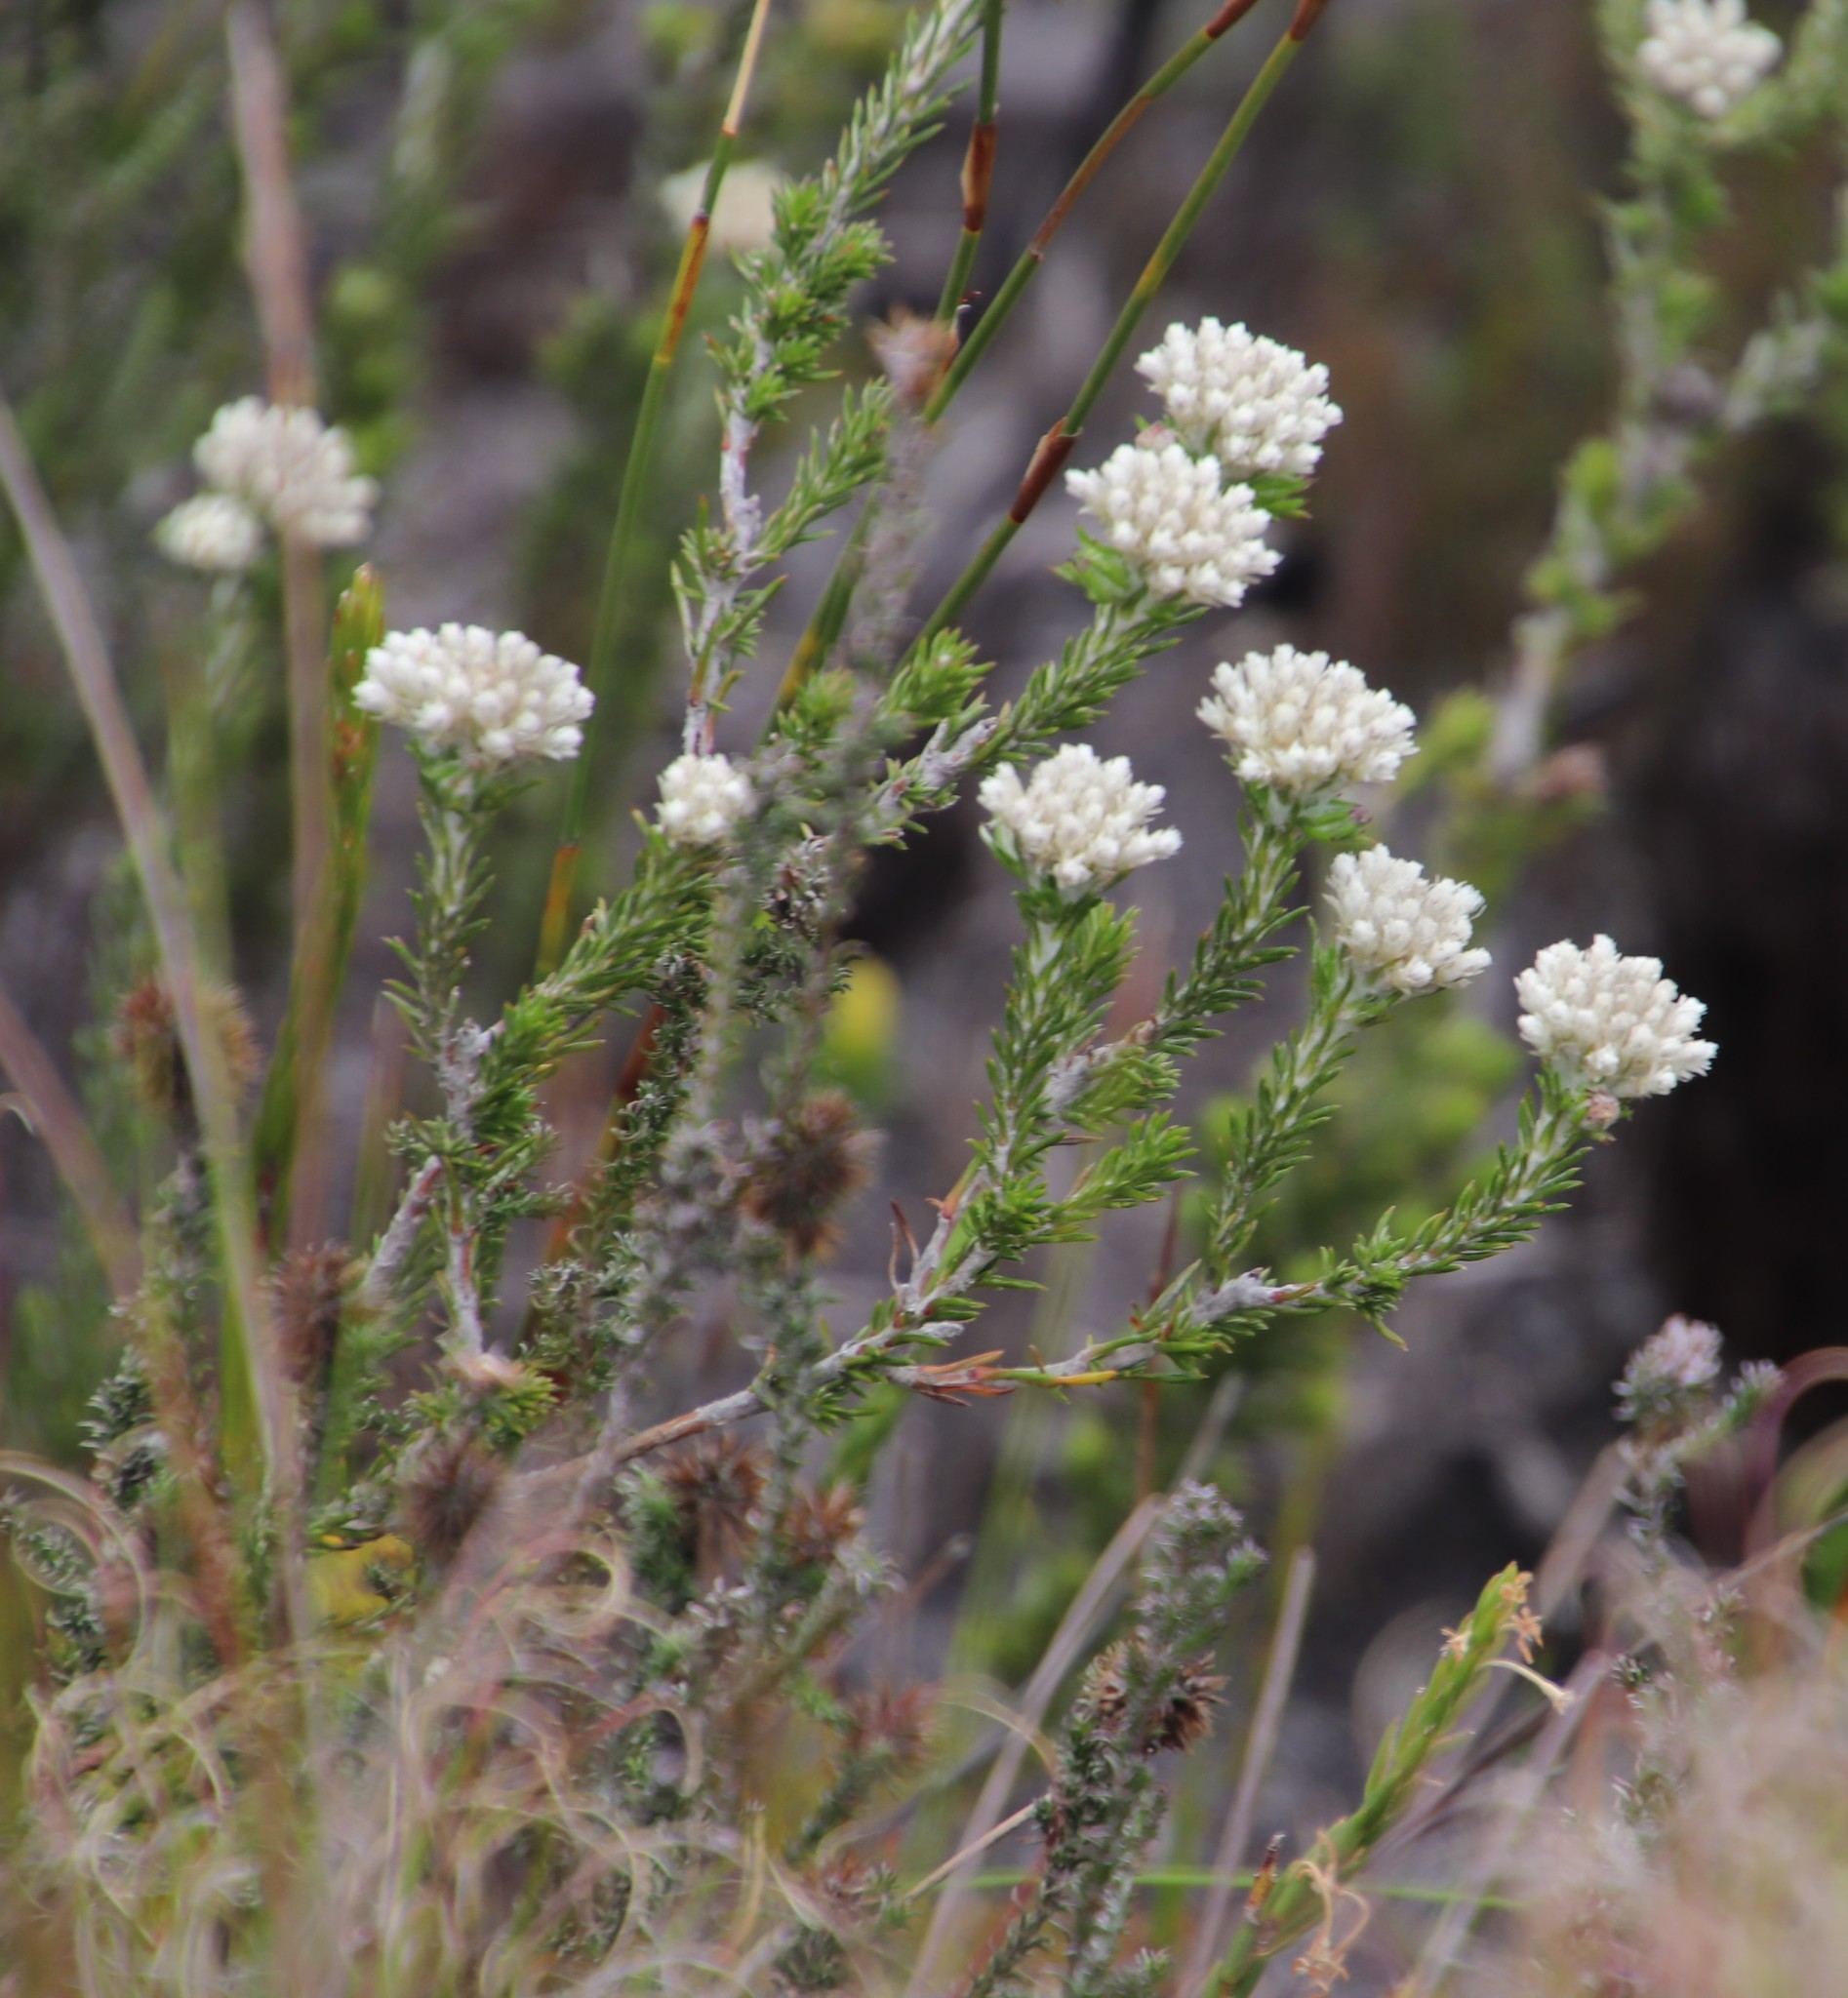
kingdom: Plantae
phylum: Tracheophyta
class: Magnoliopsida
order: Asterales
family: Asteraceae
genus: Metalasia
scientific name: Metalasia compacta
